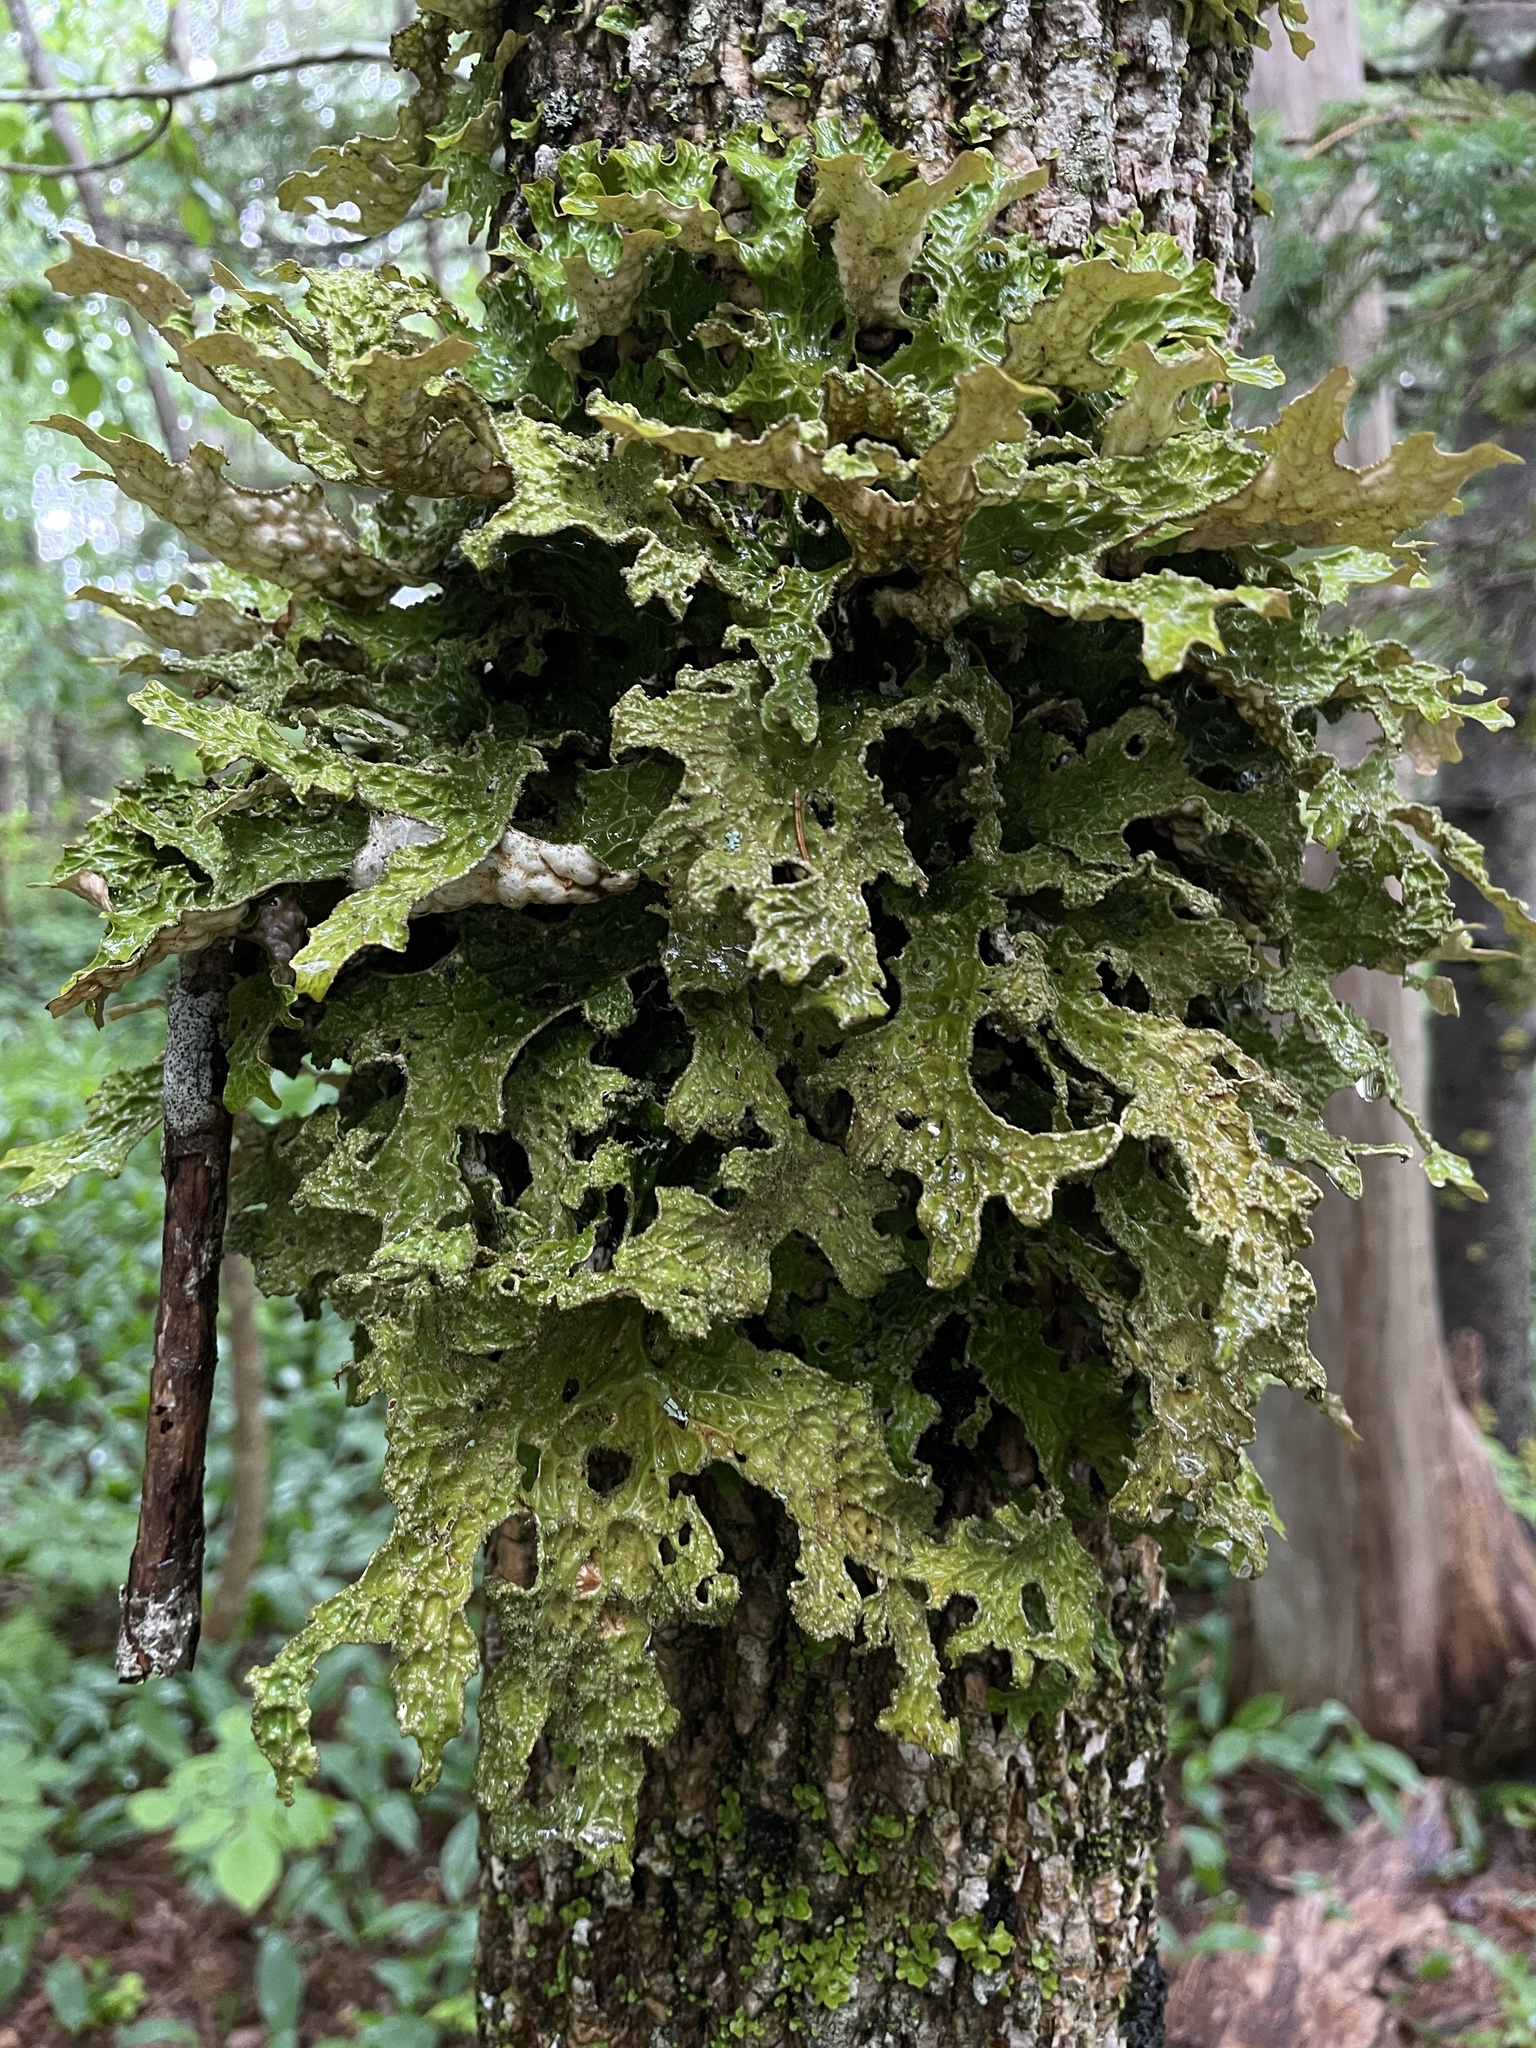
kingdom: Fungi
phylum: Ascomycota
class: Lecanoromycetes
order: Peltigerales
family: Lobariaceae
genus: Lobaria
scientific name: Lobaria pulmonaria
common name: Lungwort
